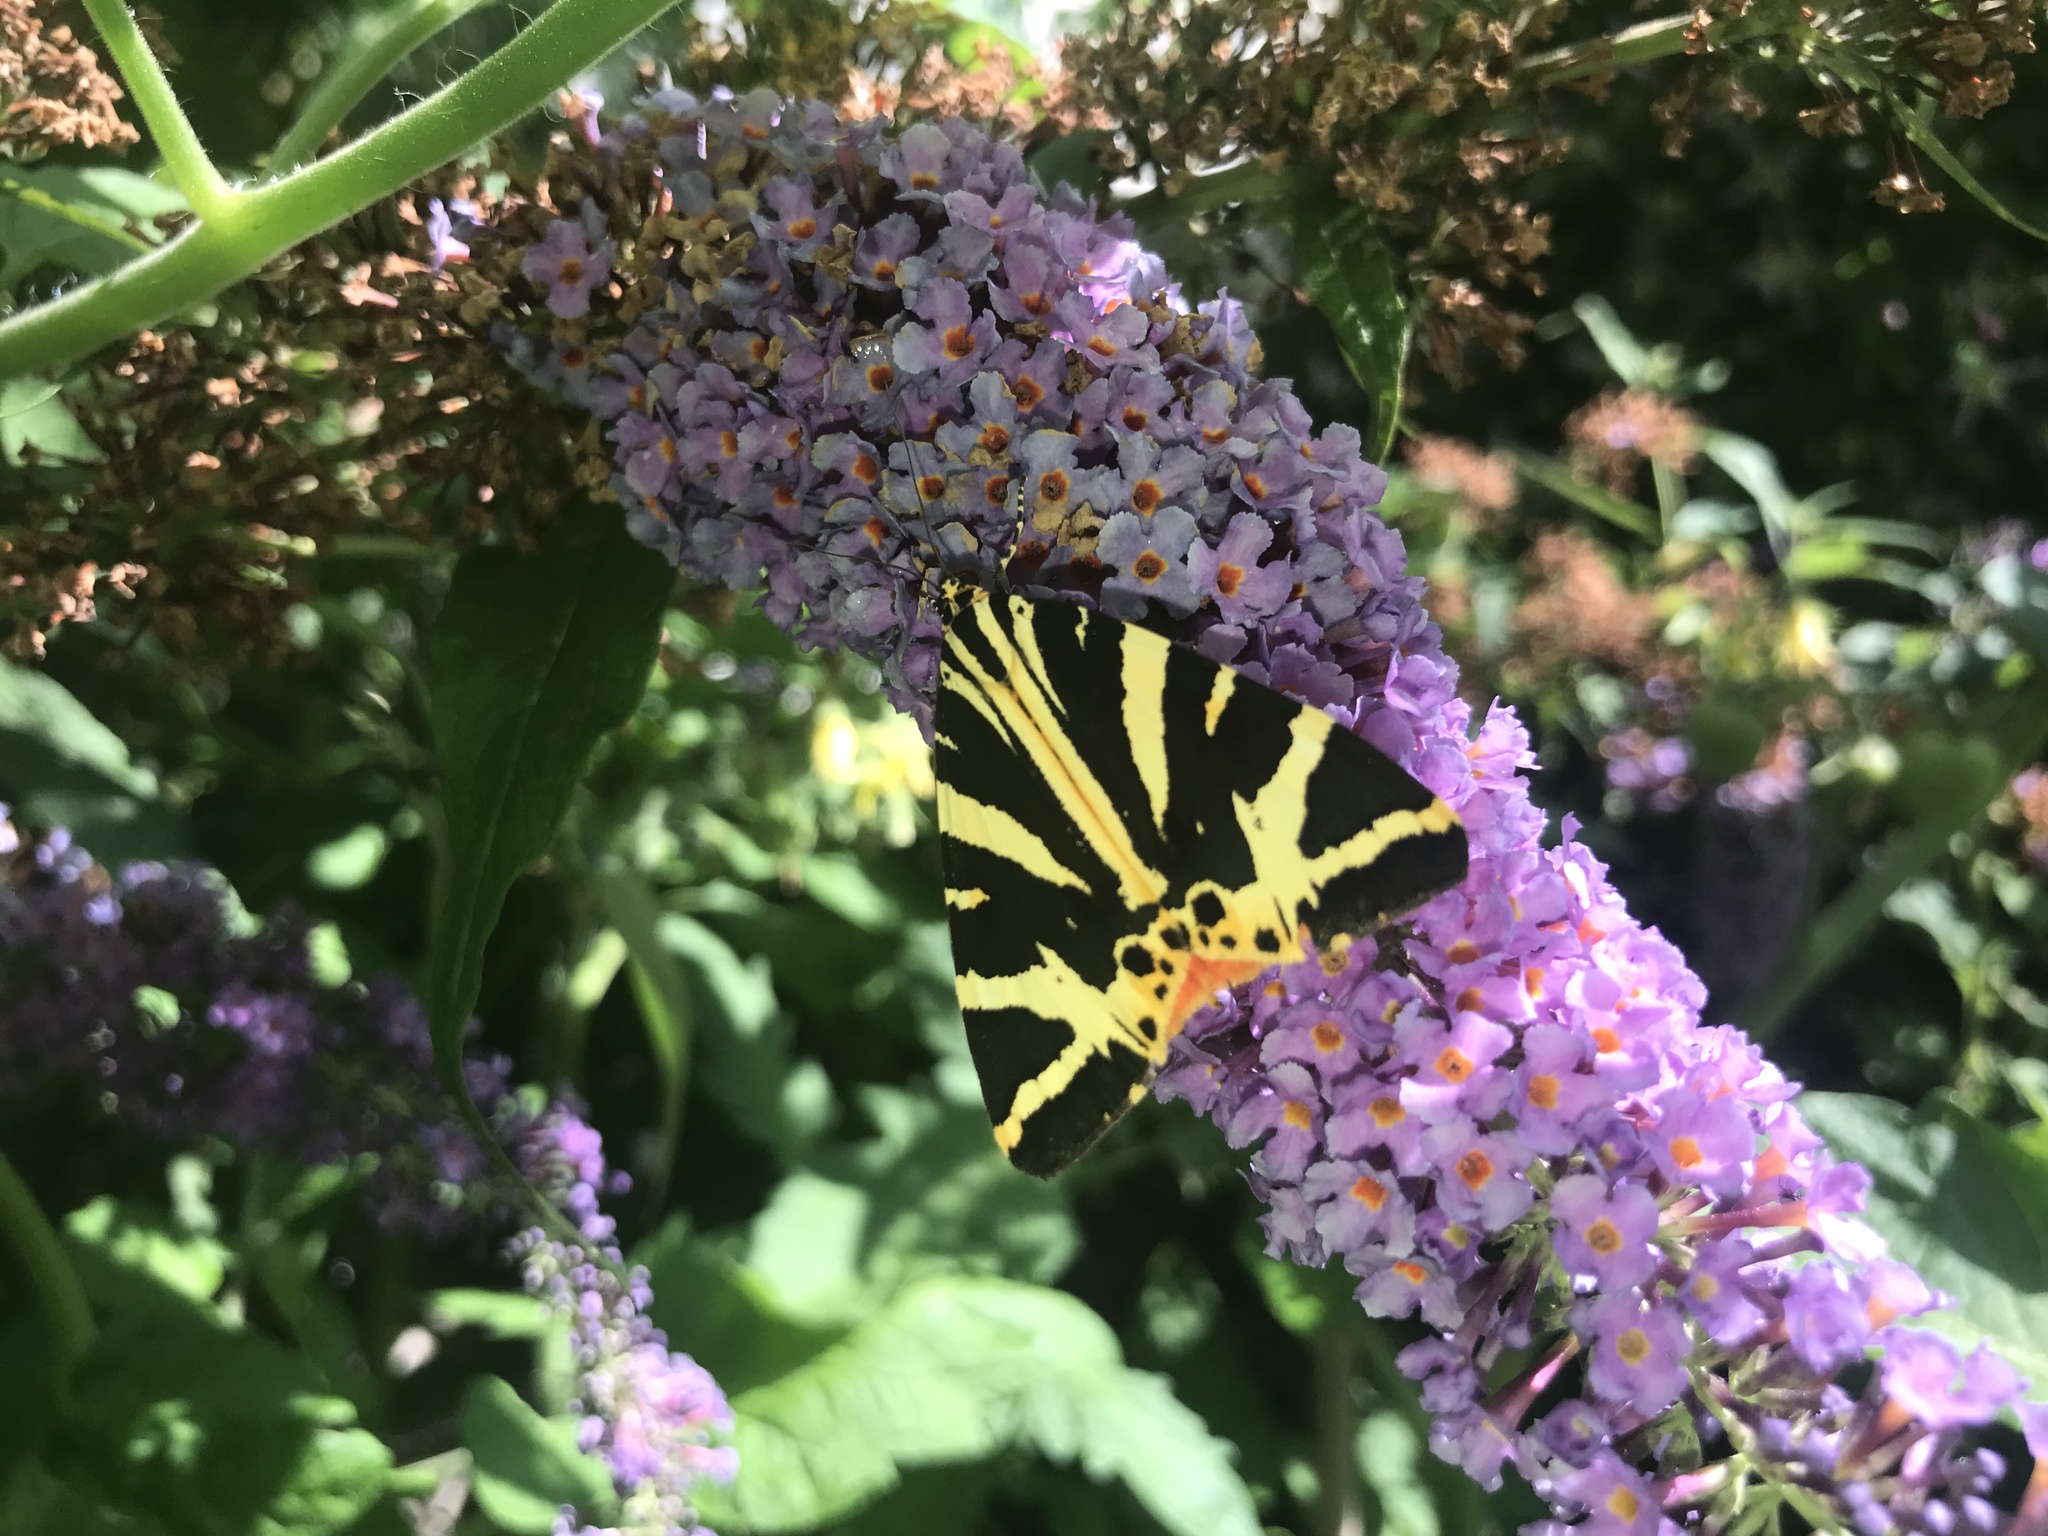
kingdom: Animalia
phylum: Arthropoda
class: Insecta
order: Lepidoptera
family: Erebidae
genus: Euplagia
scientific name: Euplagia quadripunctaria
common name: Jersey tiger
